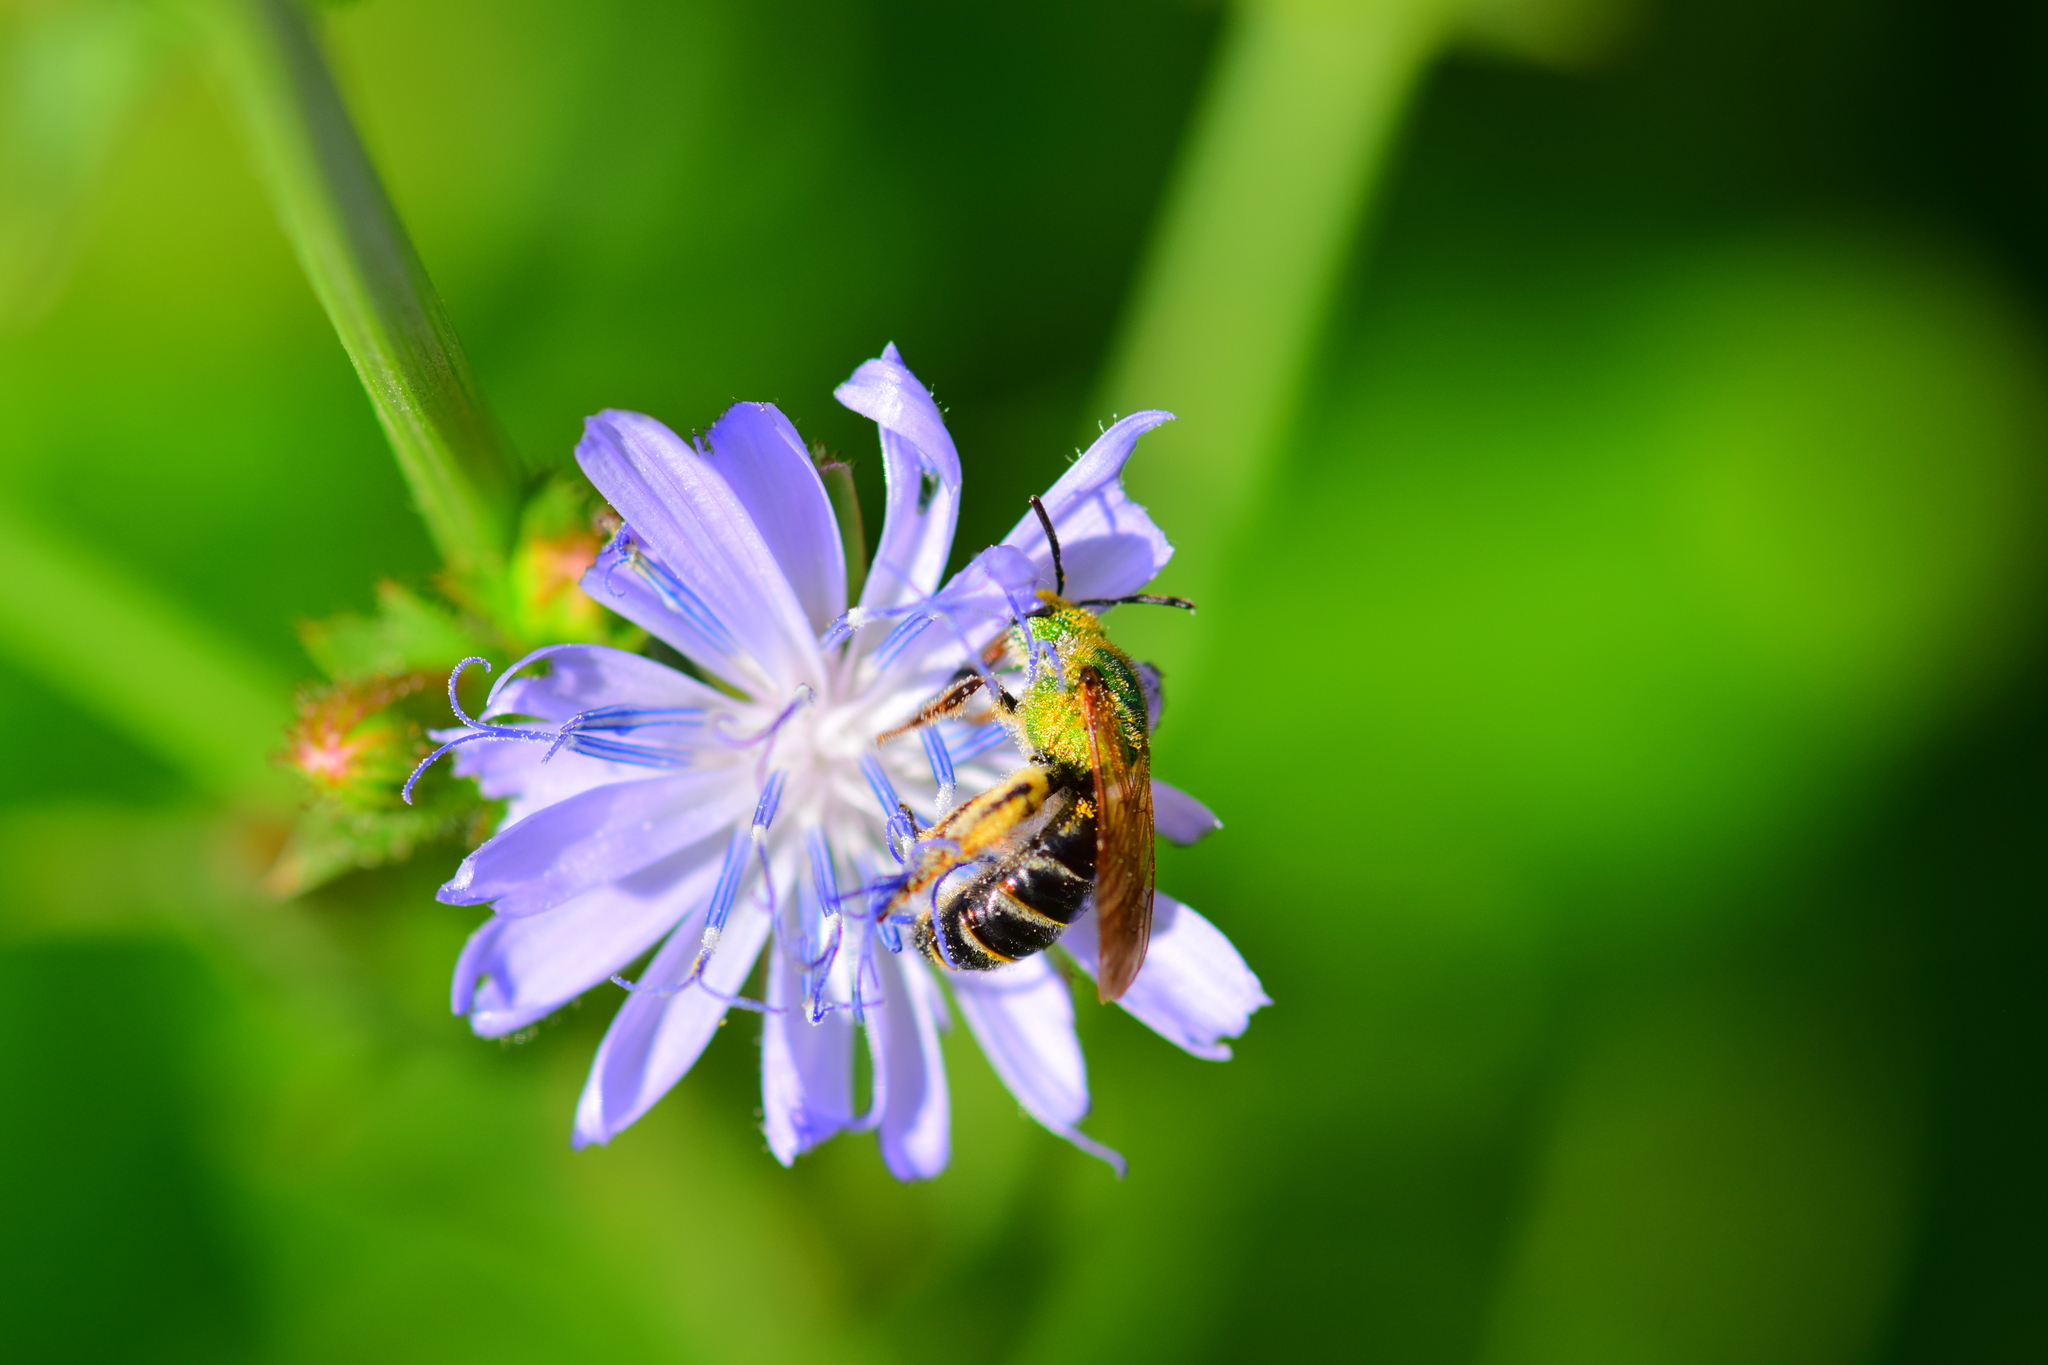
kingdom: Animalia
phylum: Arthropoda
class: Insecta
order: Hymenoptera
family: Halictidae
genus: Agapostemon
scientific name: Agapostemon virescens
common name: Bicolored striped sweat bee
